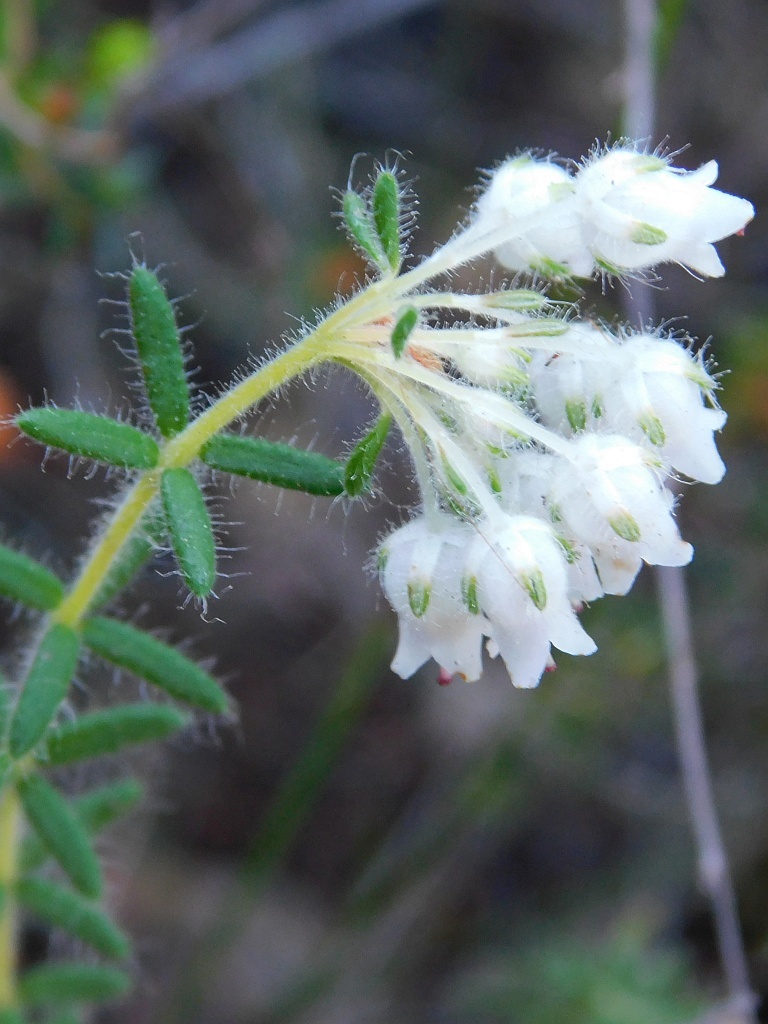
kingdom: Plantae
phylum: Tracheophyta
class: Magnoliopsida
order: Ericales
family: Ericaceae
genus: Erica
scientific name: Erica pannosa
